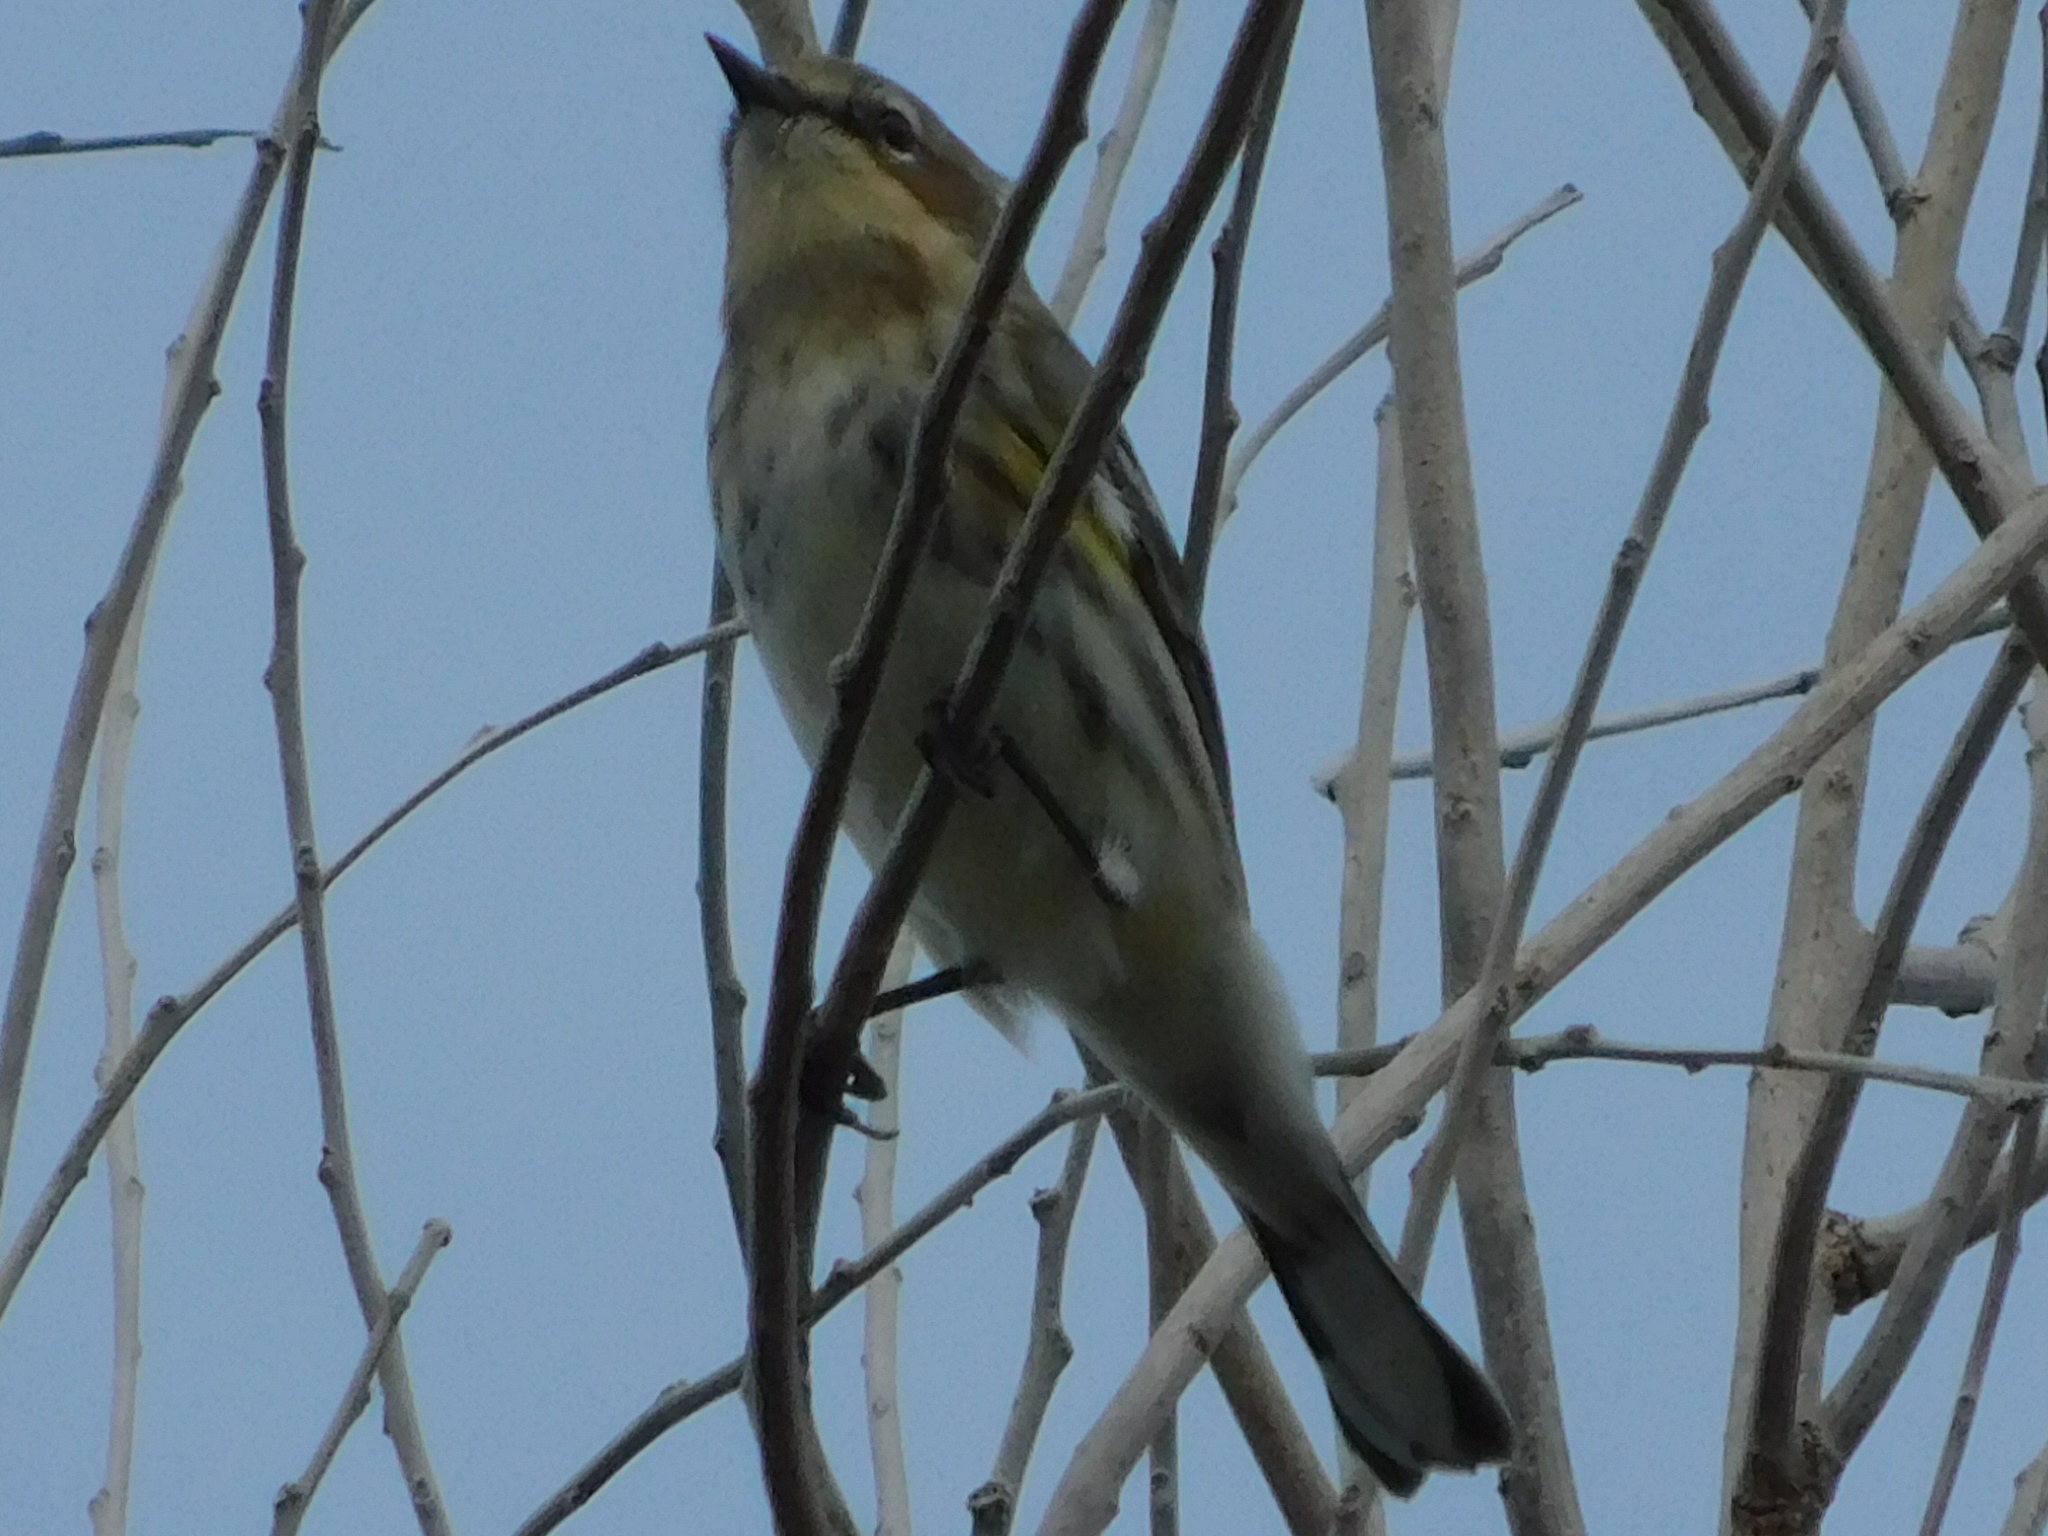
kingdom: Animalia
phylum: Chordata
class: Aves
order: Passeriformes
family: Parulidae
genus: Setophaga
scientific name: Setophaga coronata
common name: Myrtle warbler
